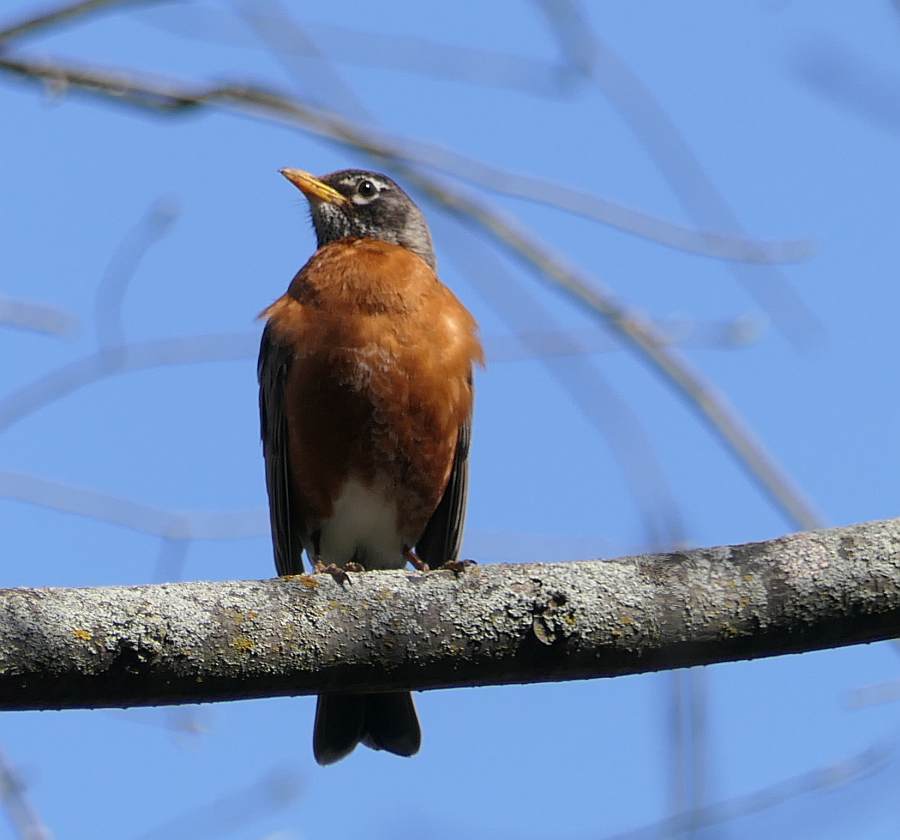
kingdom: Animalia
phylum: Chordata
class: Aves
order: Passeriformes
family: Turdidae
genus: Turdus
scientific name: Turdus migratorius
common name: American robin
